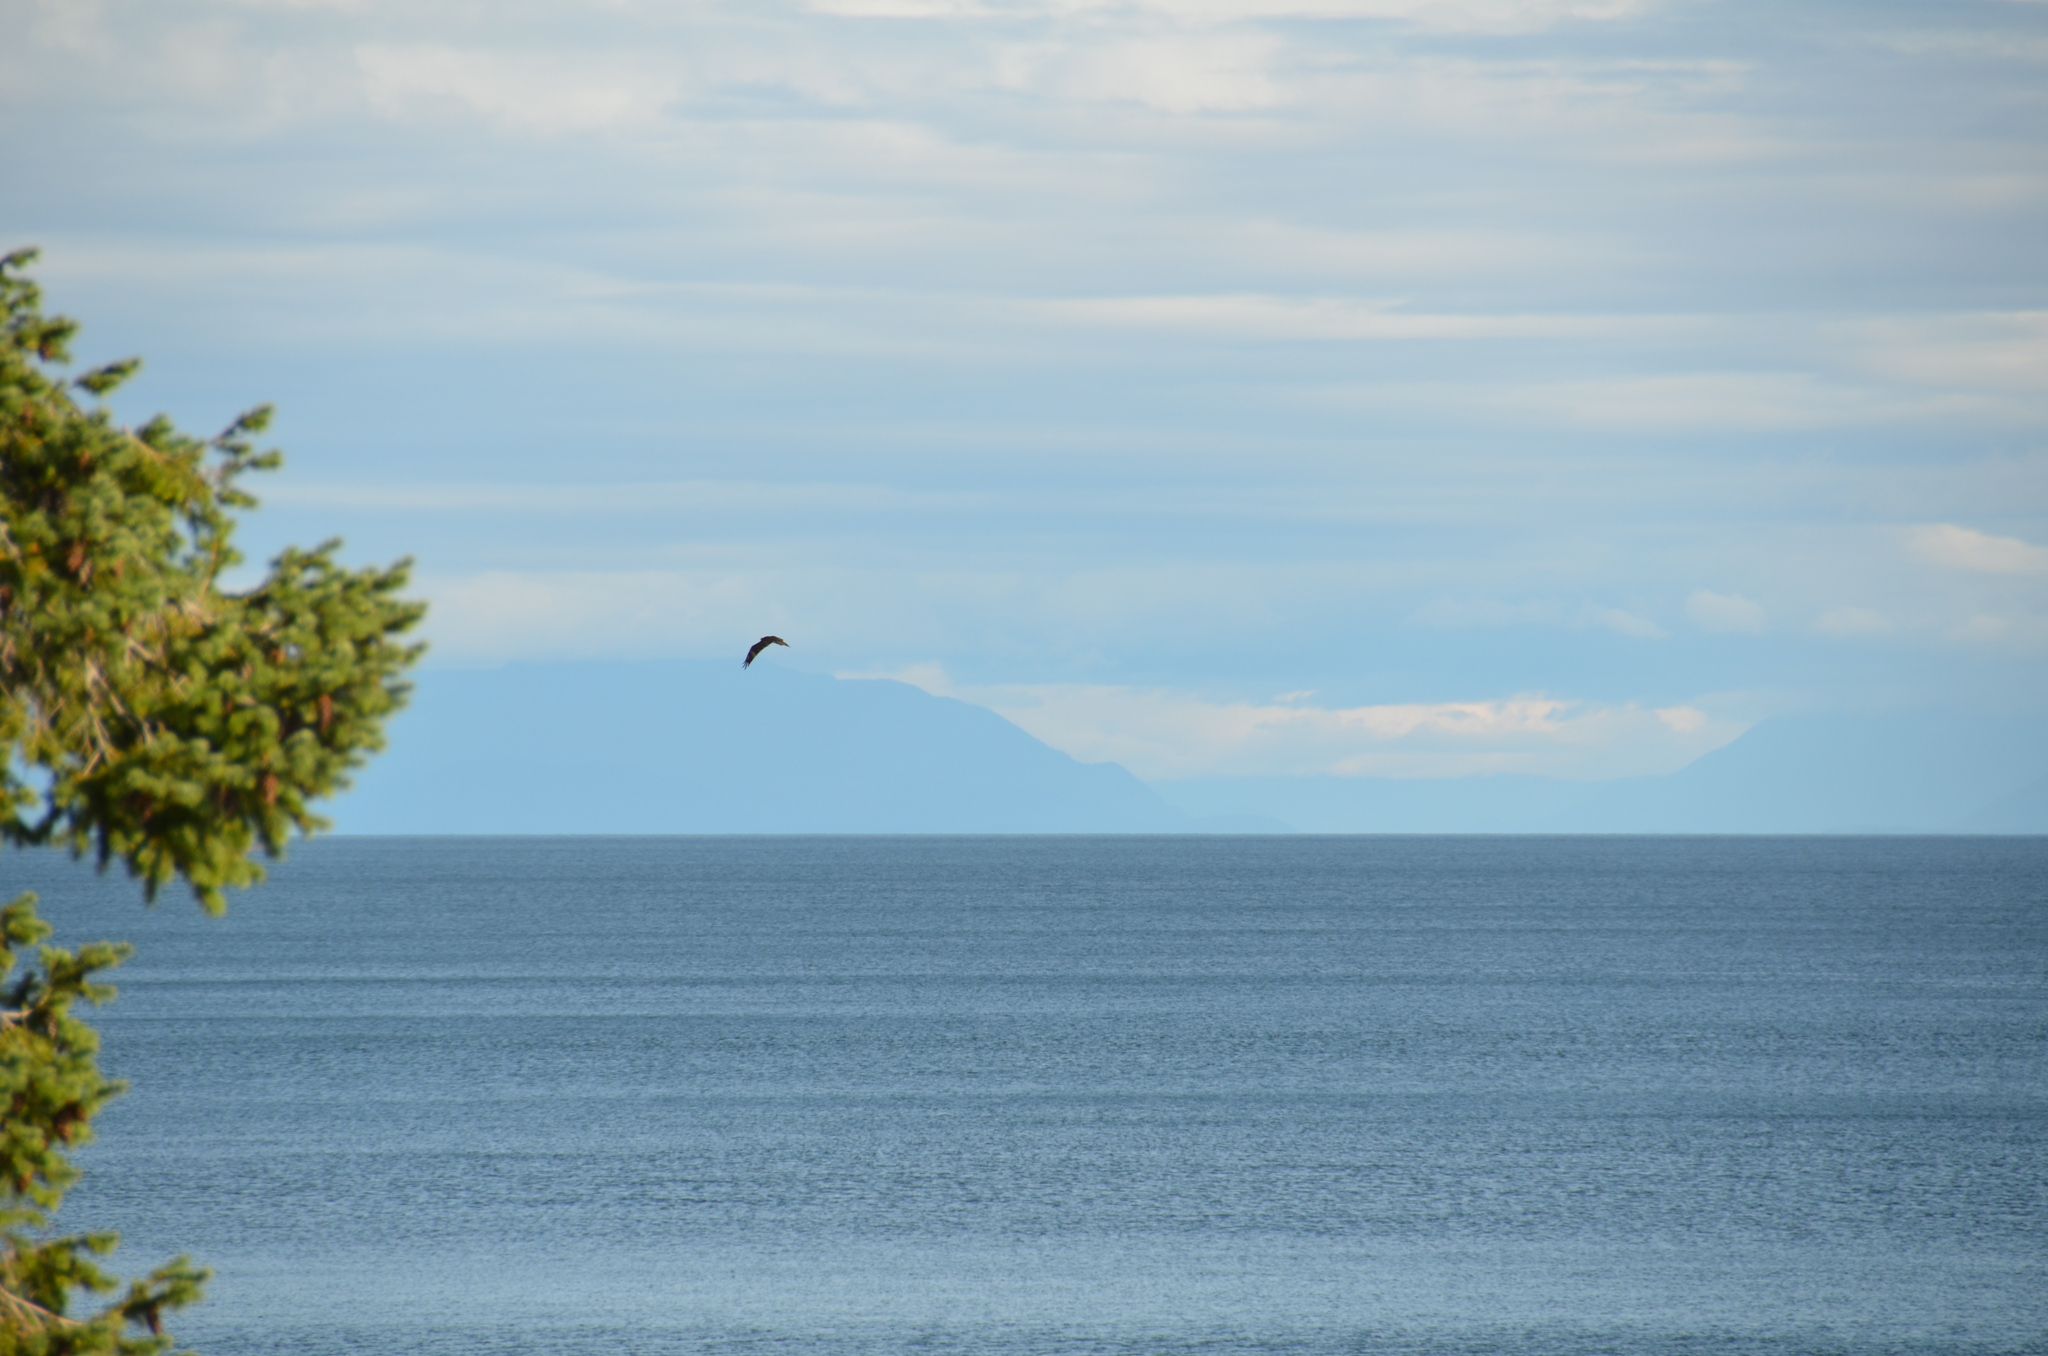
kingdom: Animalia
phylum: Chordata
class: Aves
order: Accipitriformes
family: Pandionidae
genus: Pandion
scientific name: Pandion haliaetus
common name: Osprey
